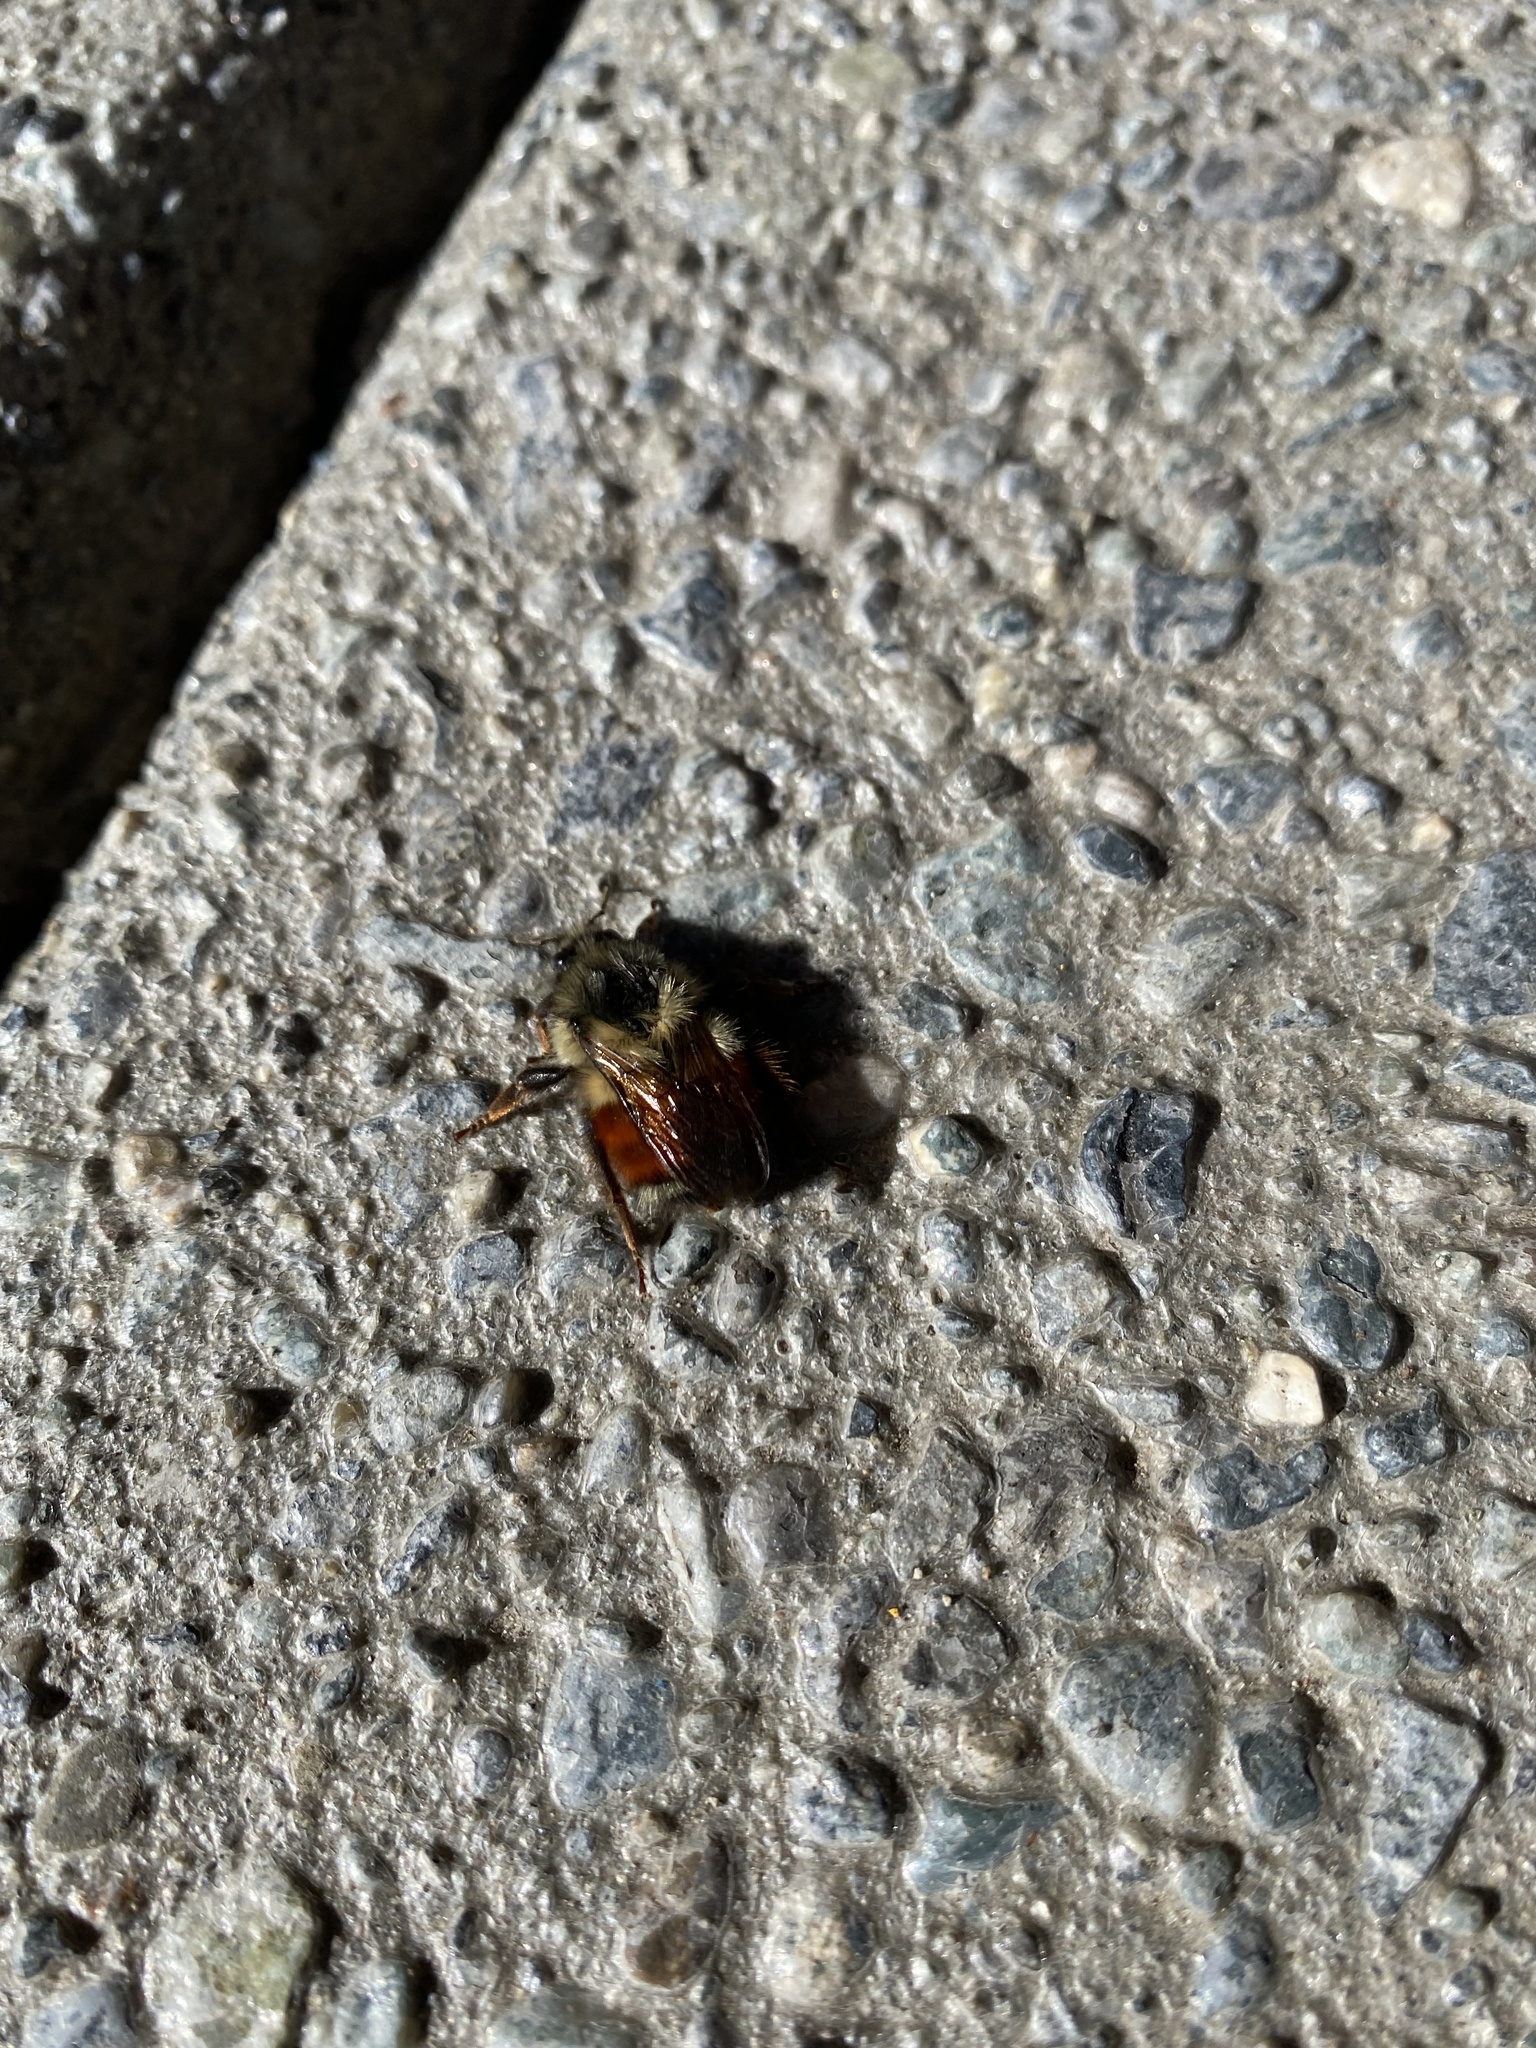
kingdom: Animalia
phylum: Arthropoda
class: Insecta
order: Hymenoptera
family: Apidae
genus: Bombus
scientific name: Bombus melanopygus
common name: Black tail bumble bee
